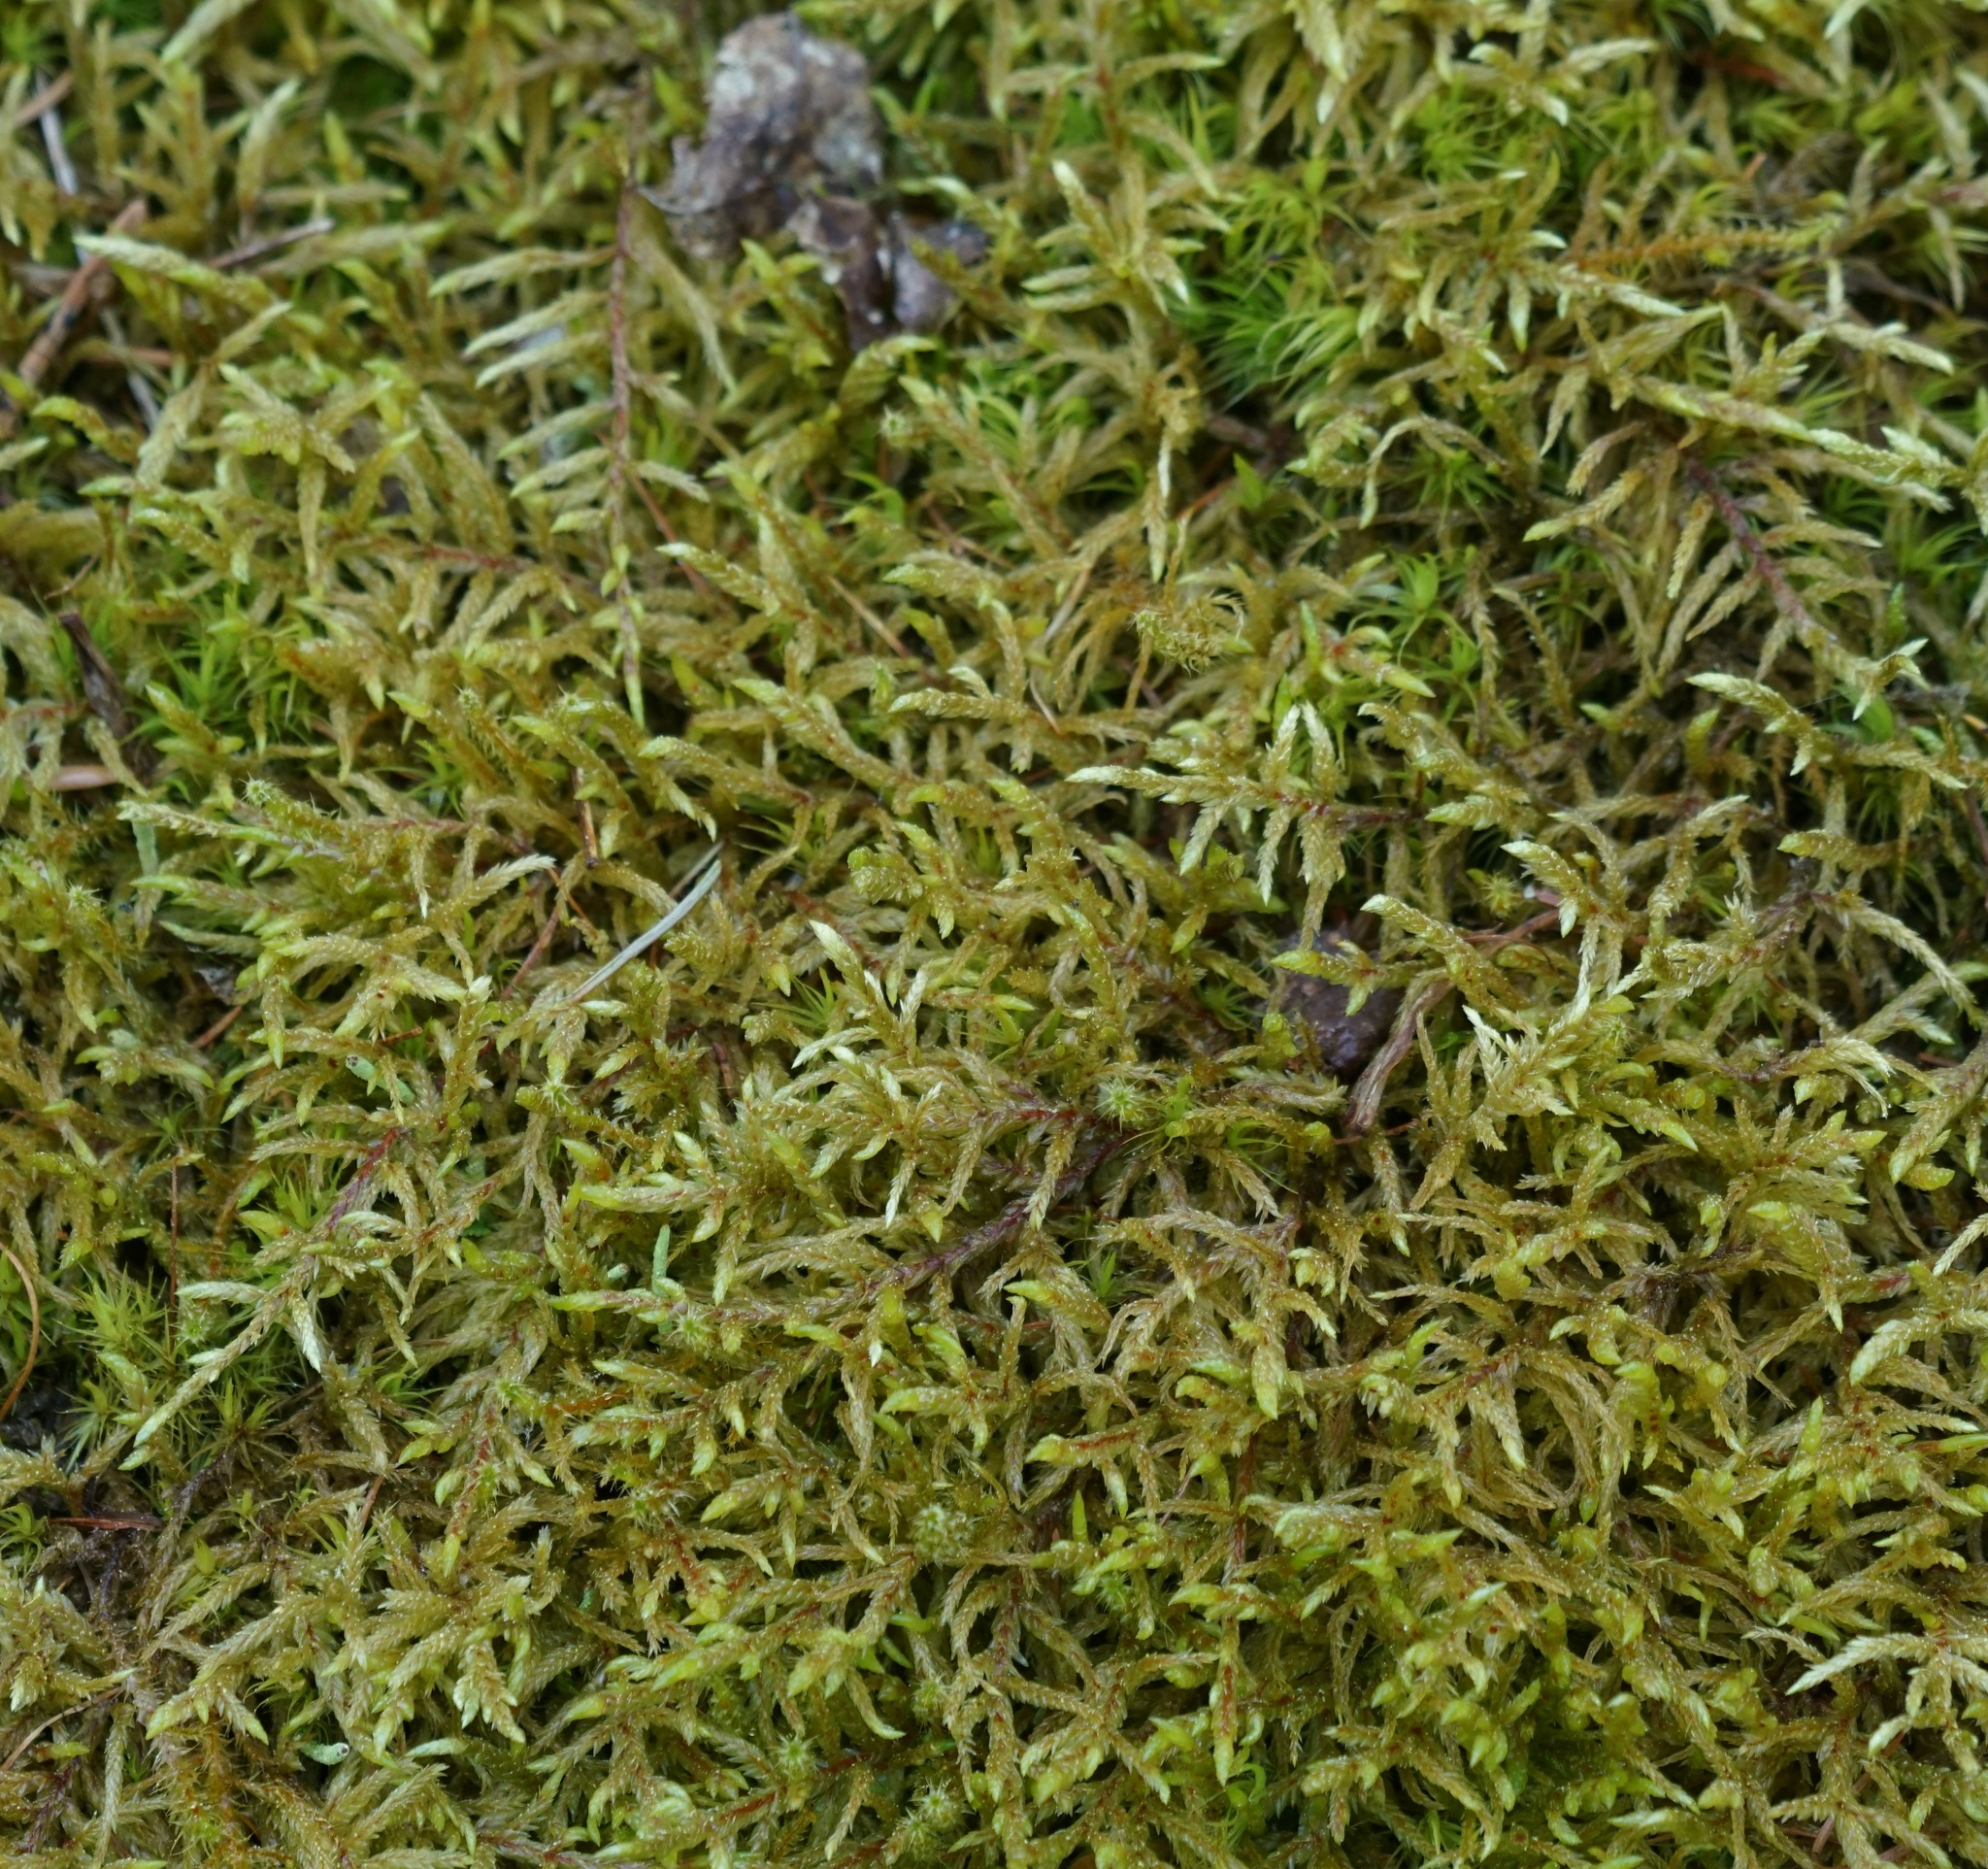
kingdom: Plantae
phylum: Bryophyta
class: Bryopsida
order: Hypnales
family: Hylocomiaceae
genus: Pleurozium
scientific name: Pleurozium schreberi
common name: Red-stemmed feather moss
